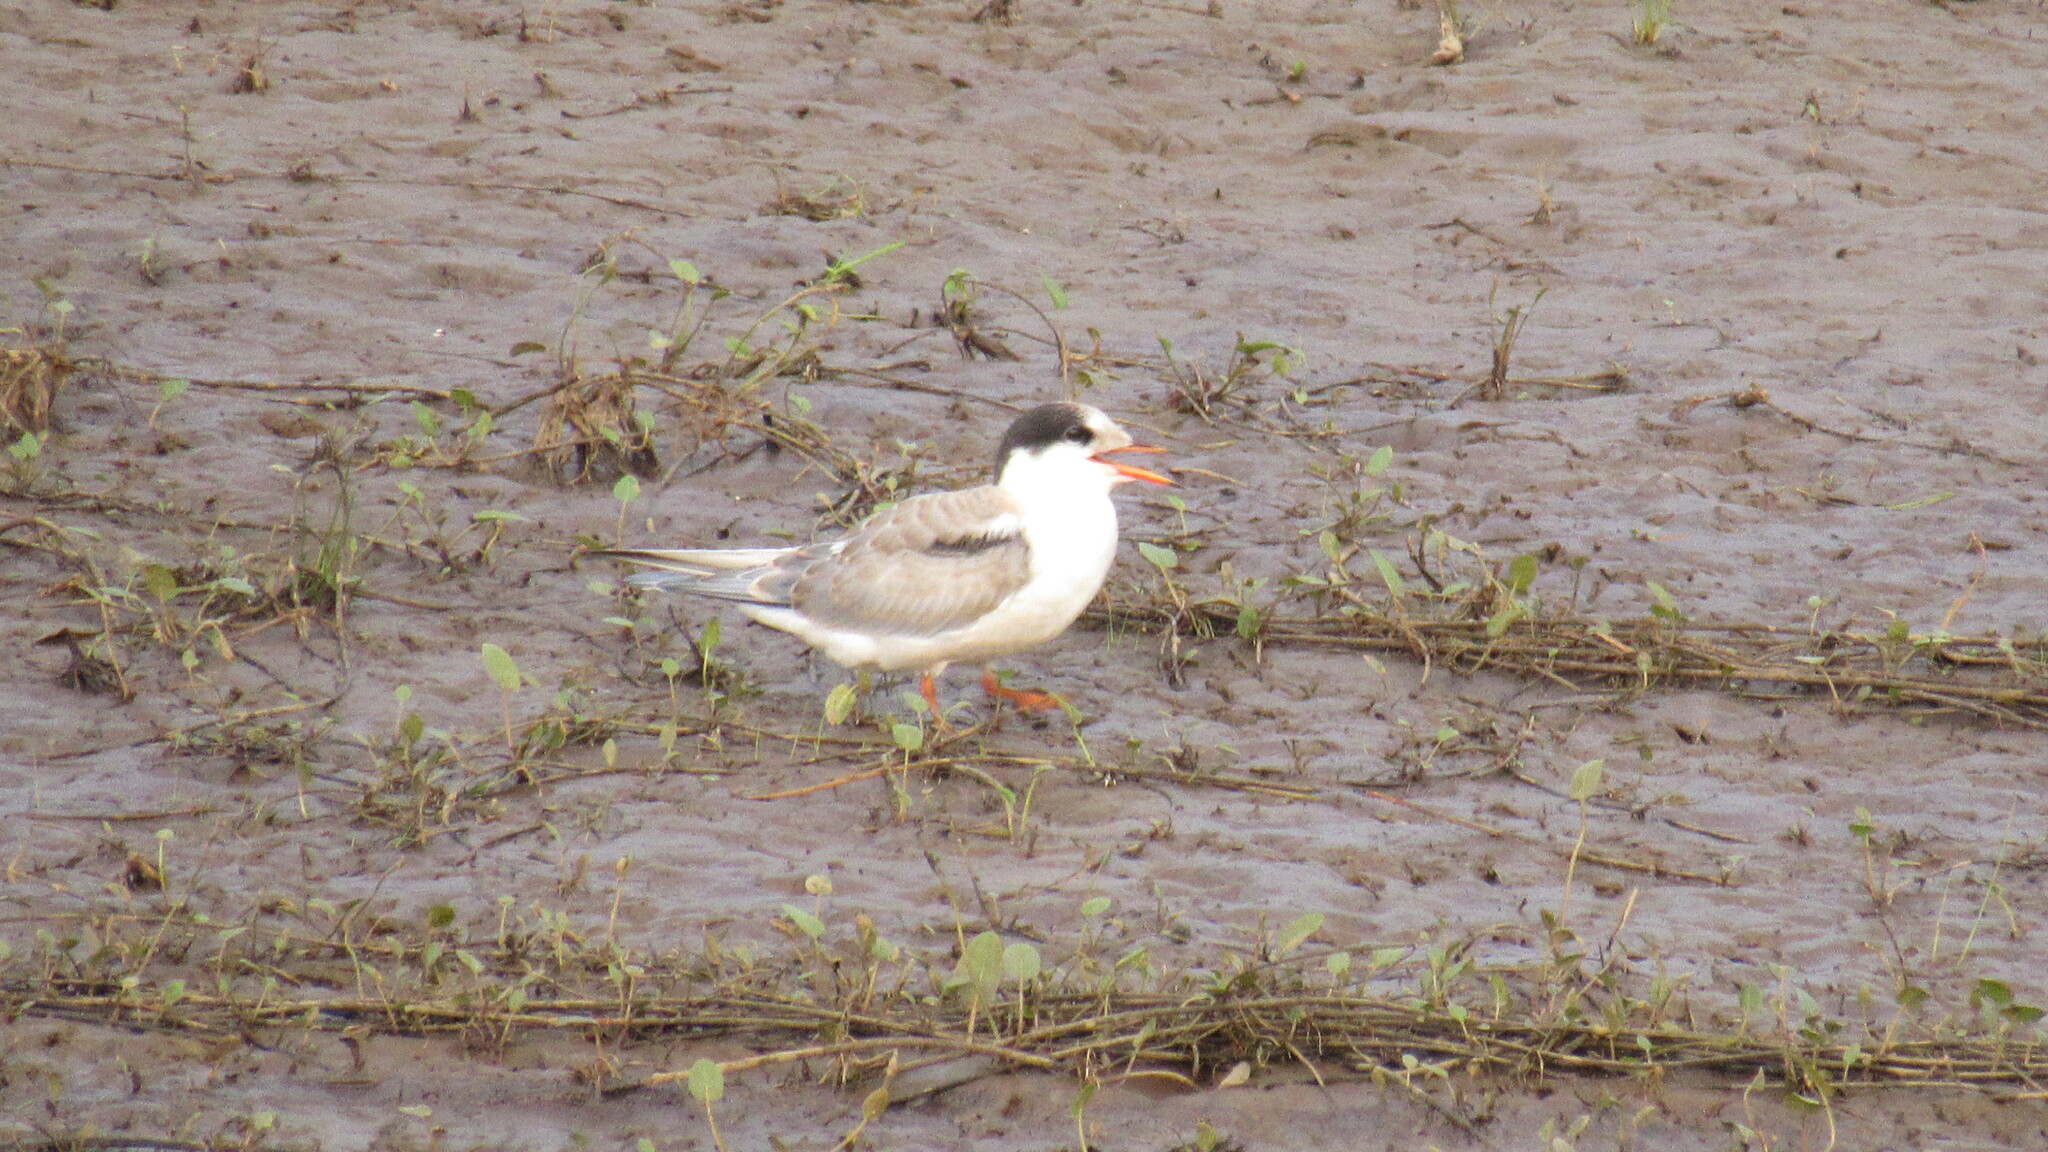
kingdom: Animalia
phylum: Chordata
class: Aves
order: Charadriiformes
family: Laridae
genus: Sterna
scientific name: Sterna hirundo
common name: Common tern
